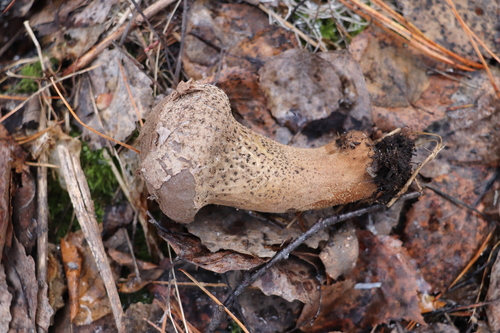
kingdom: Fungi
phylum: Basidiomycota
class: Agaricomycetes
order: Agaricales
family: Lycoperdaceae
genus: Lycoperdon
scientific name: Lycoperdon excipuliforme
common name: Pestle puffball
